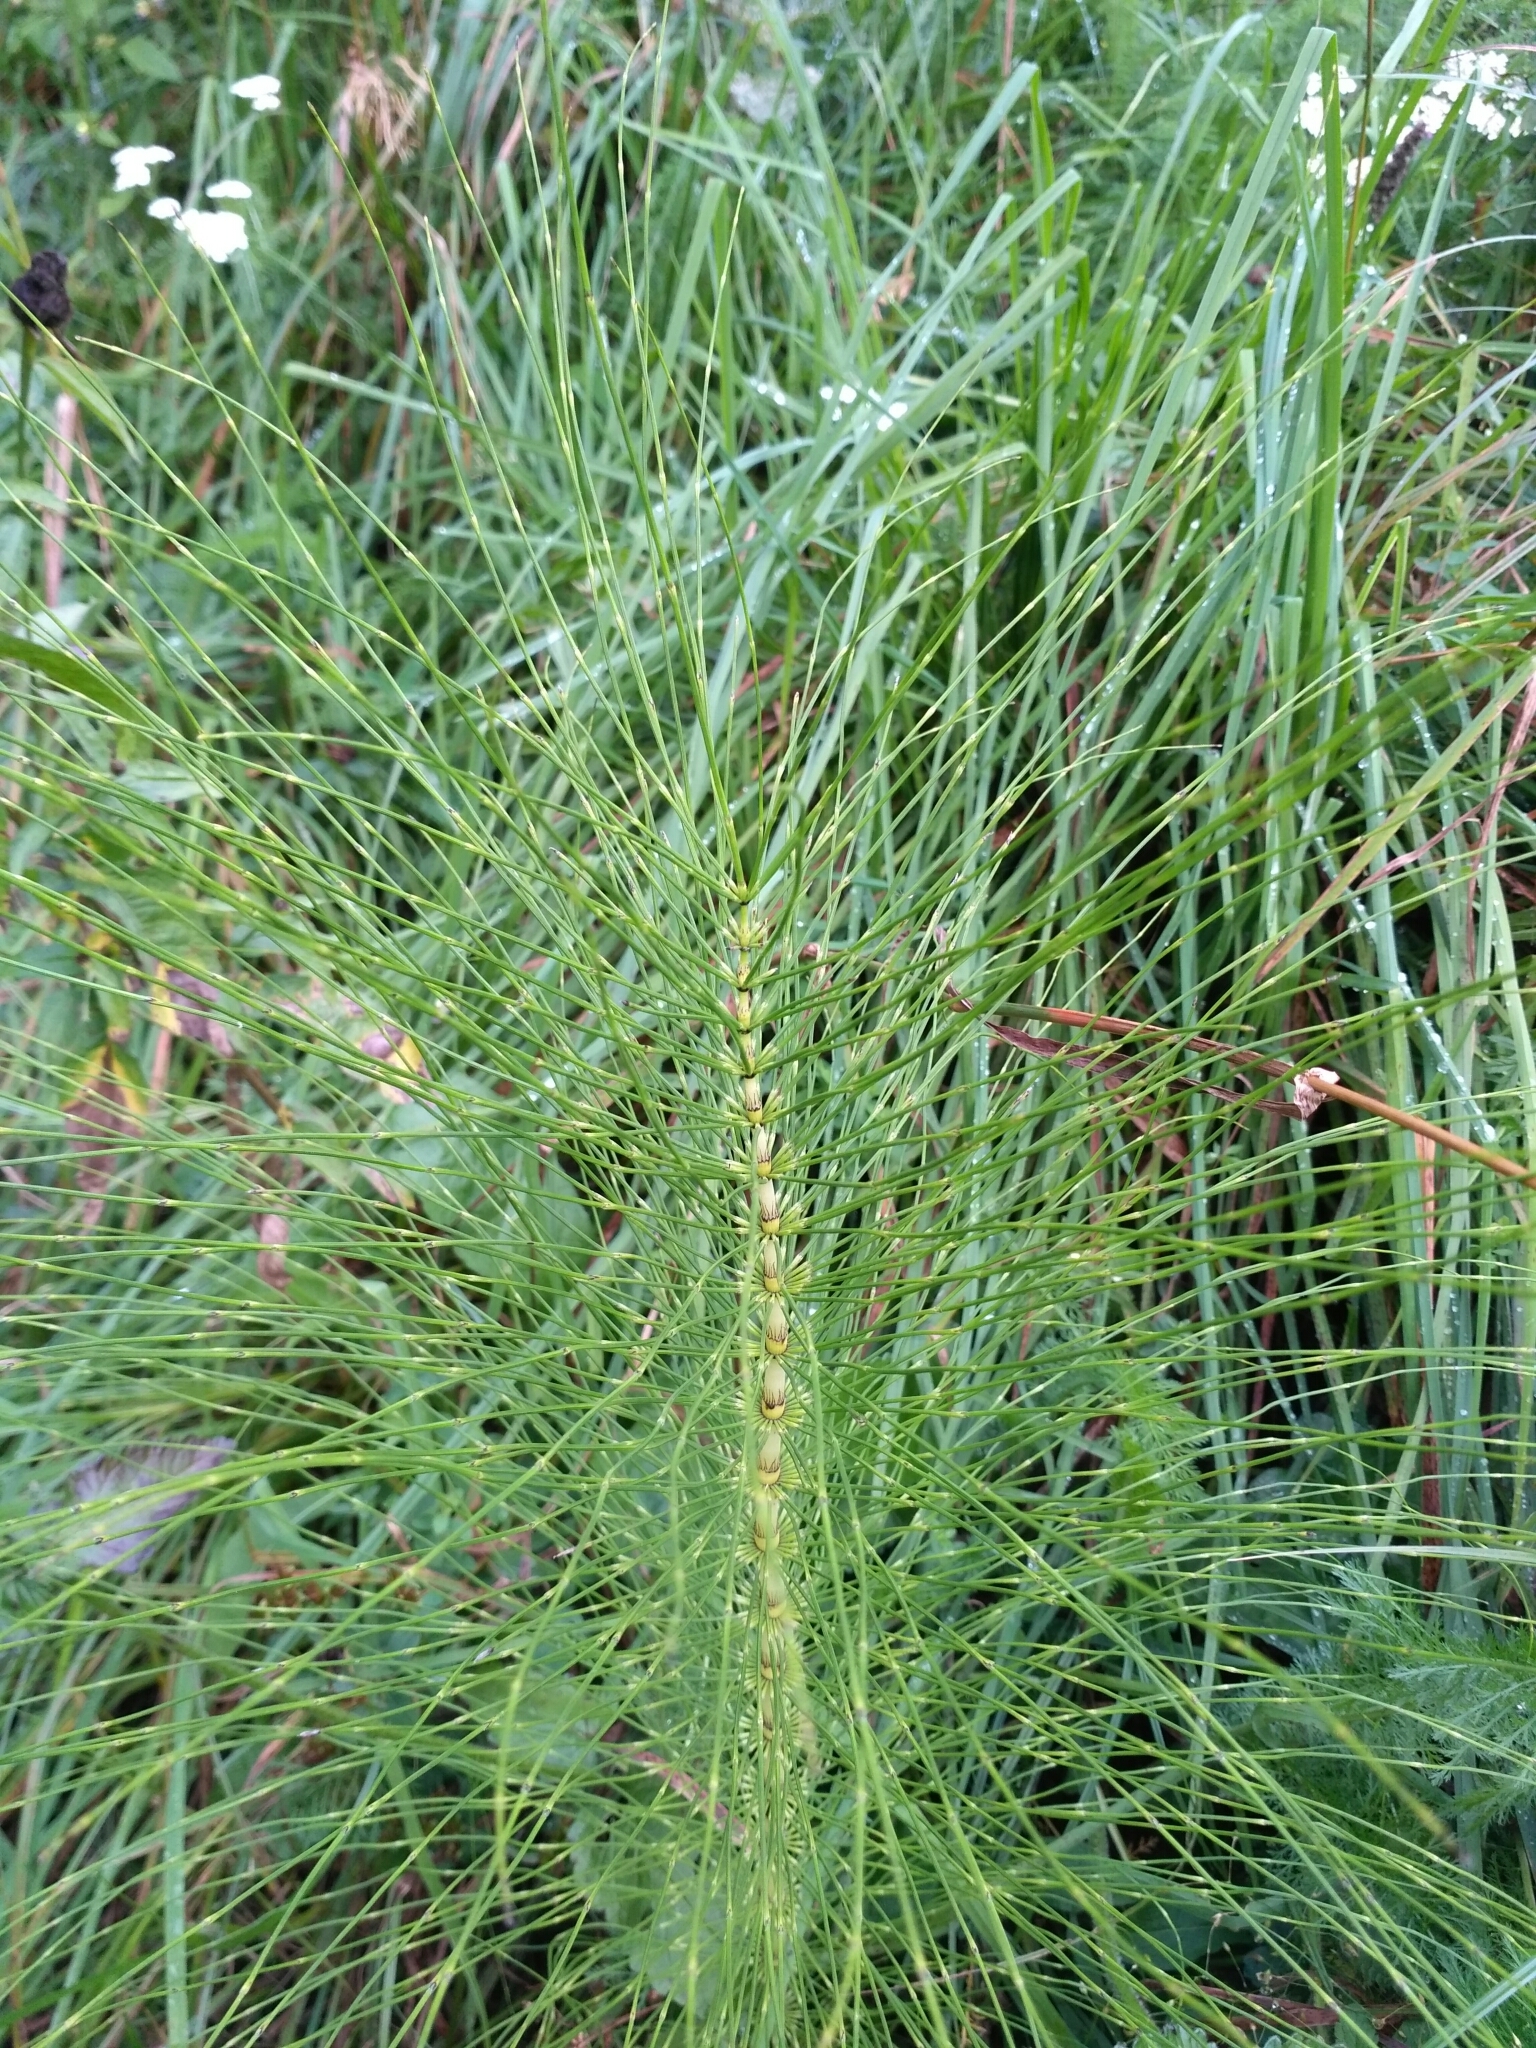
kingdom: Plantae
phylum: Tracheophyta
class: Polypodiopsida
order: Equisetales
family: Equisetaceae
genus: Equisetum
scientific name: Equisetum telmateia
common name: Great horsetail
